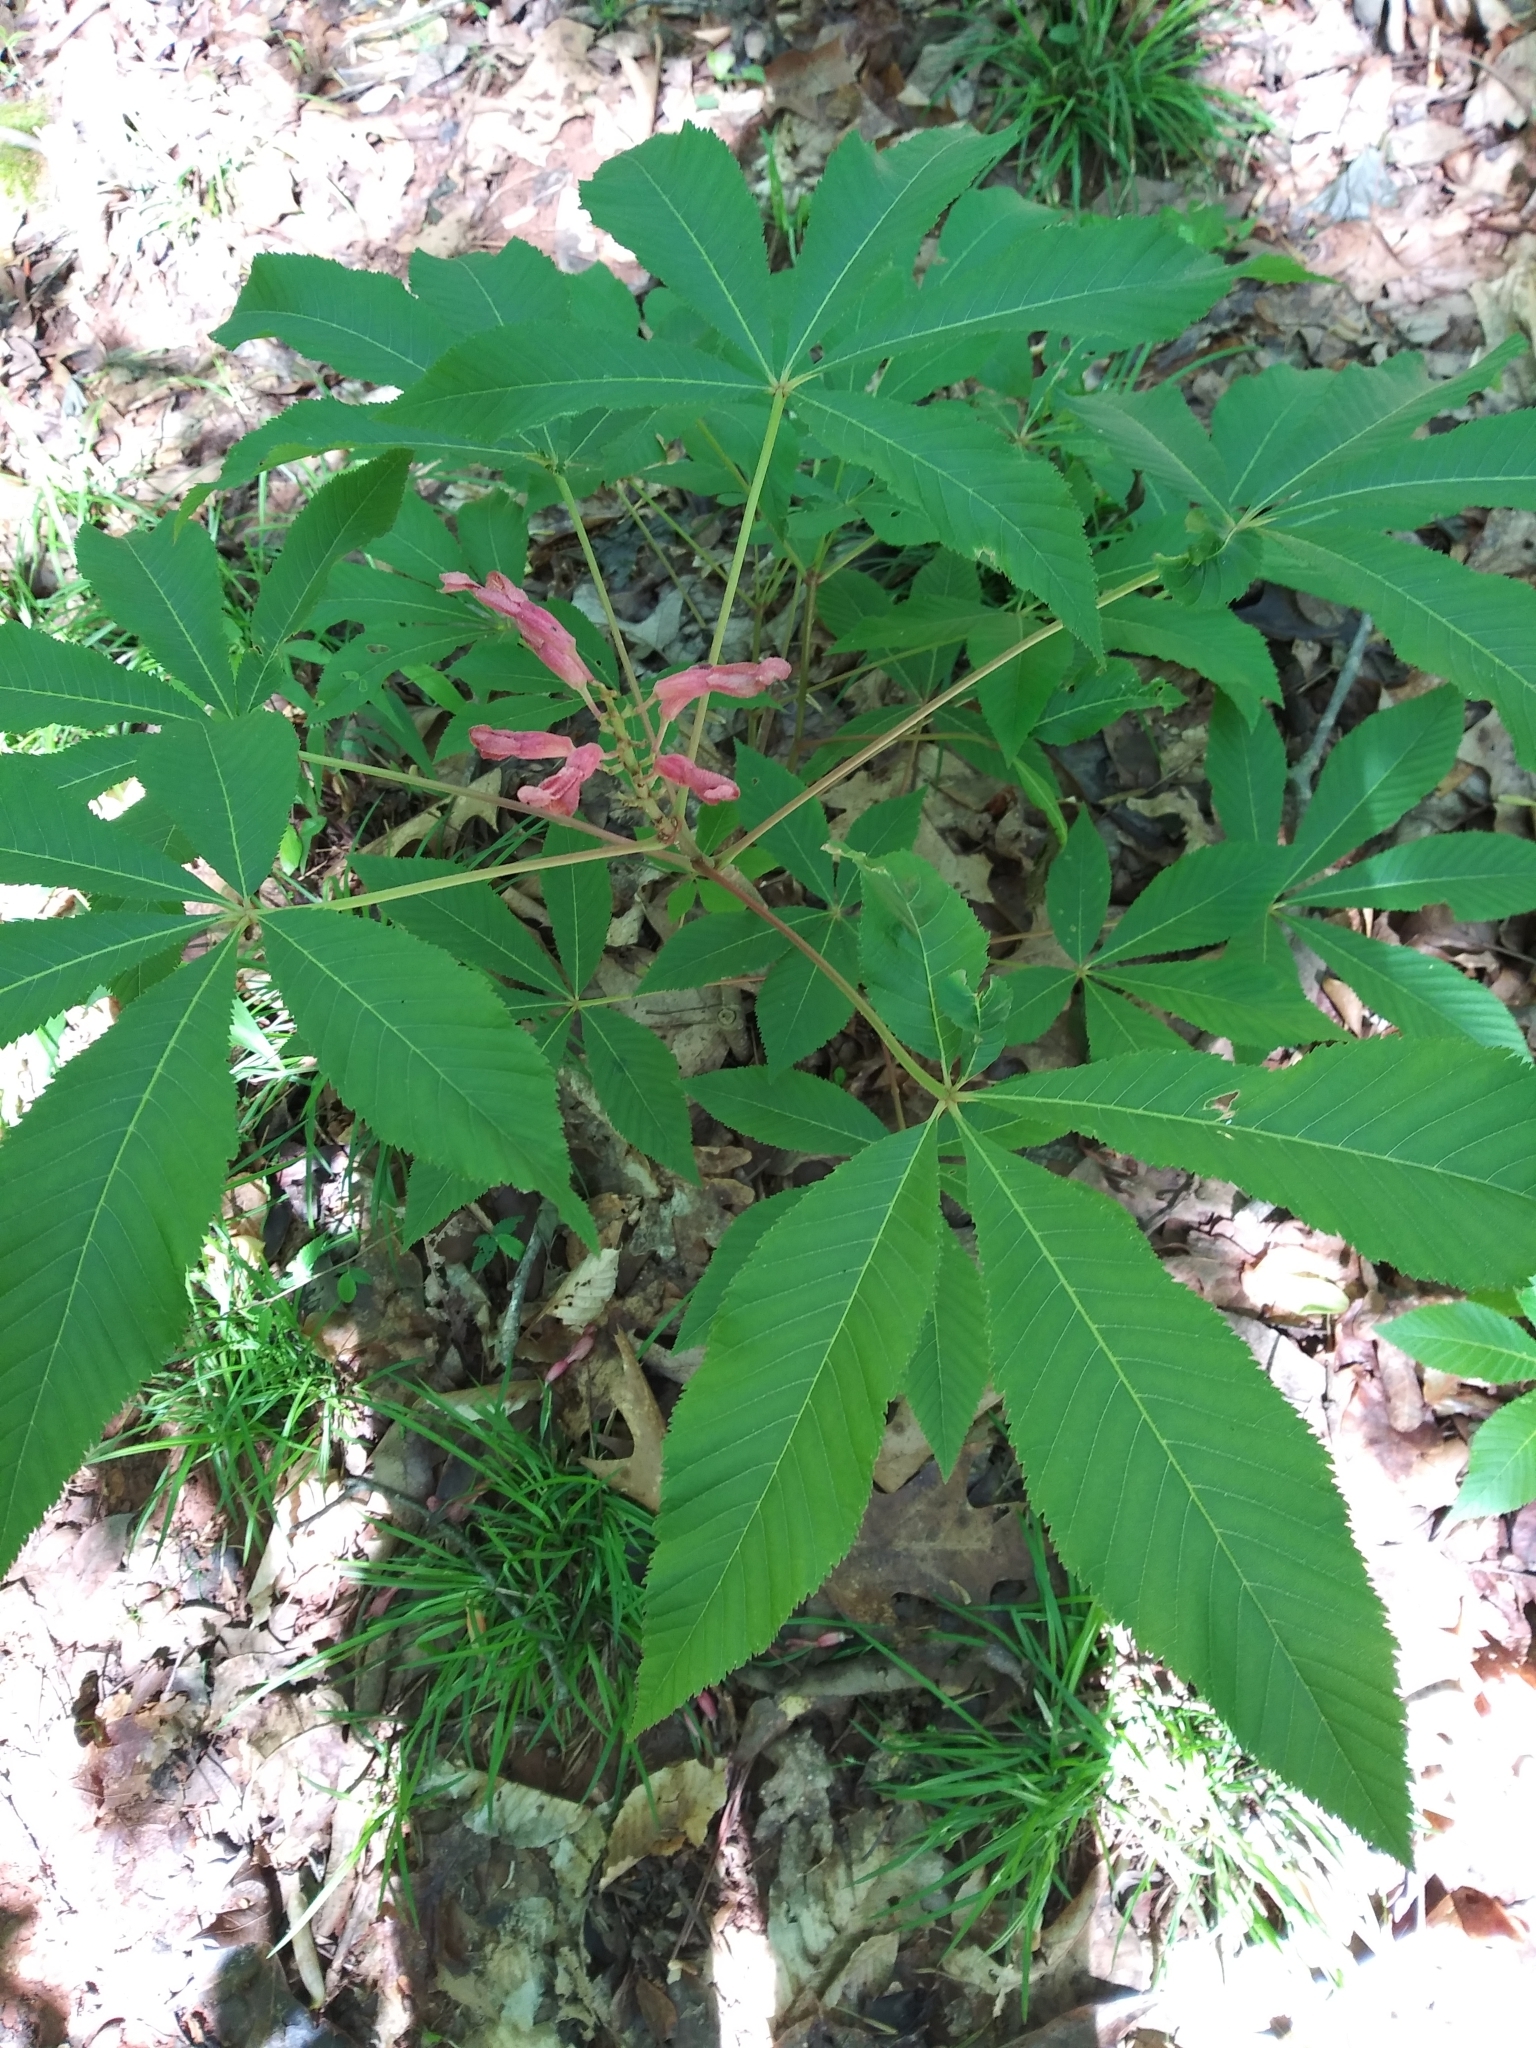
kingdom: Plantae
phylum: Tracheophyta
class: Magnoliopsida
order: Sapindales
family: Sapindaceae
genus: Aesculus
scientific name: Aesculus pavia
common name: Red buckeye
